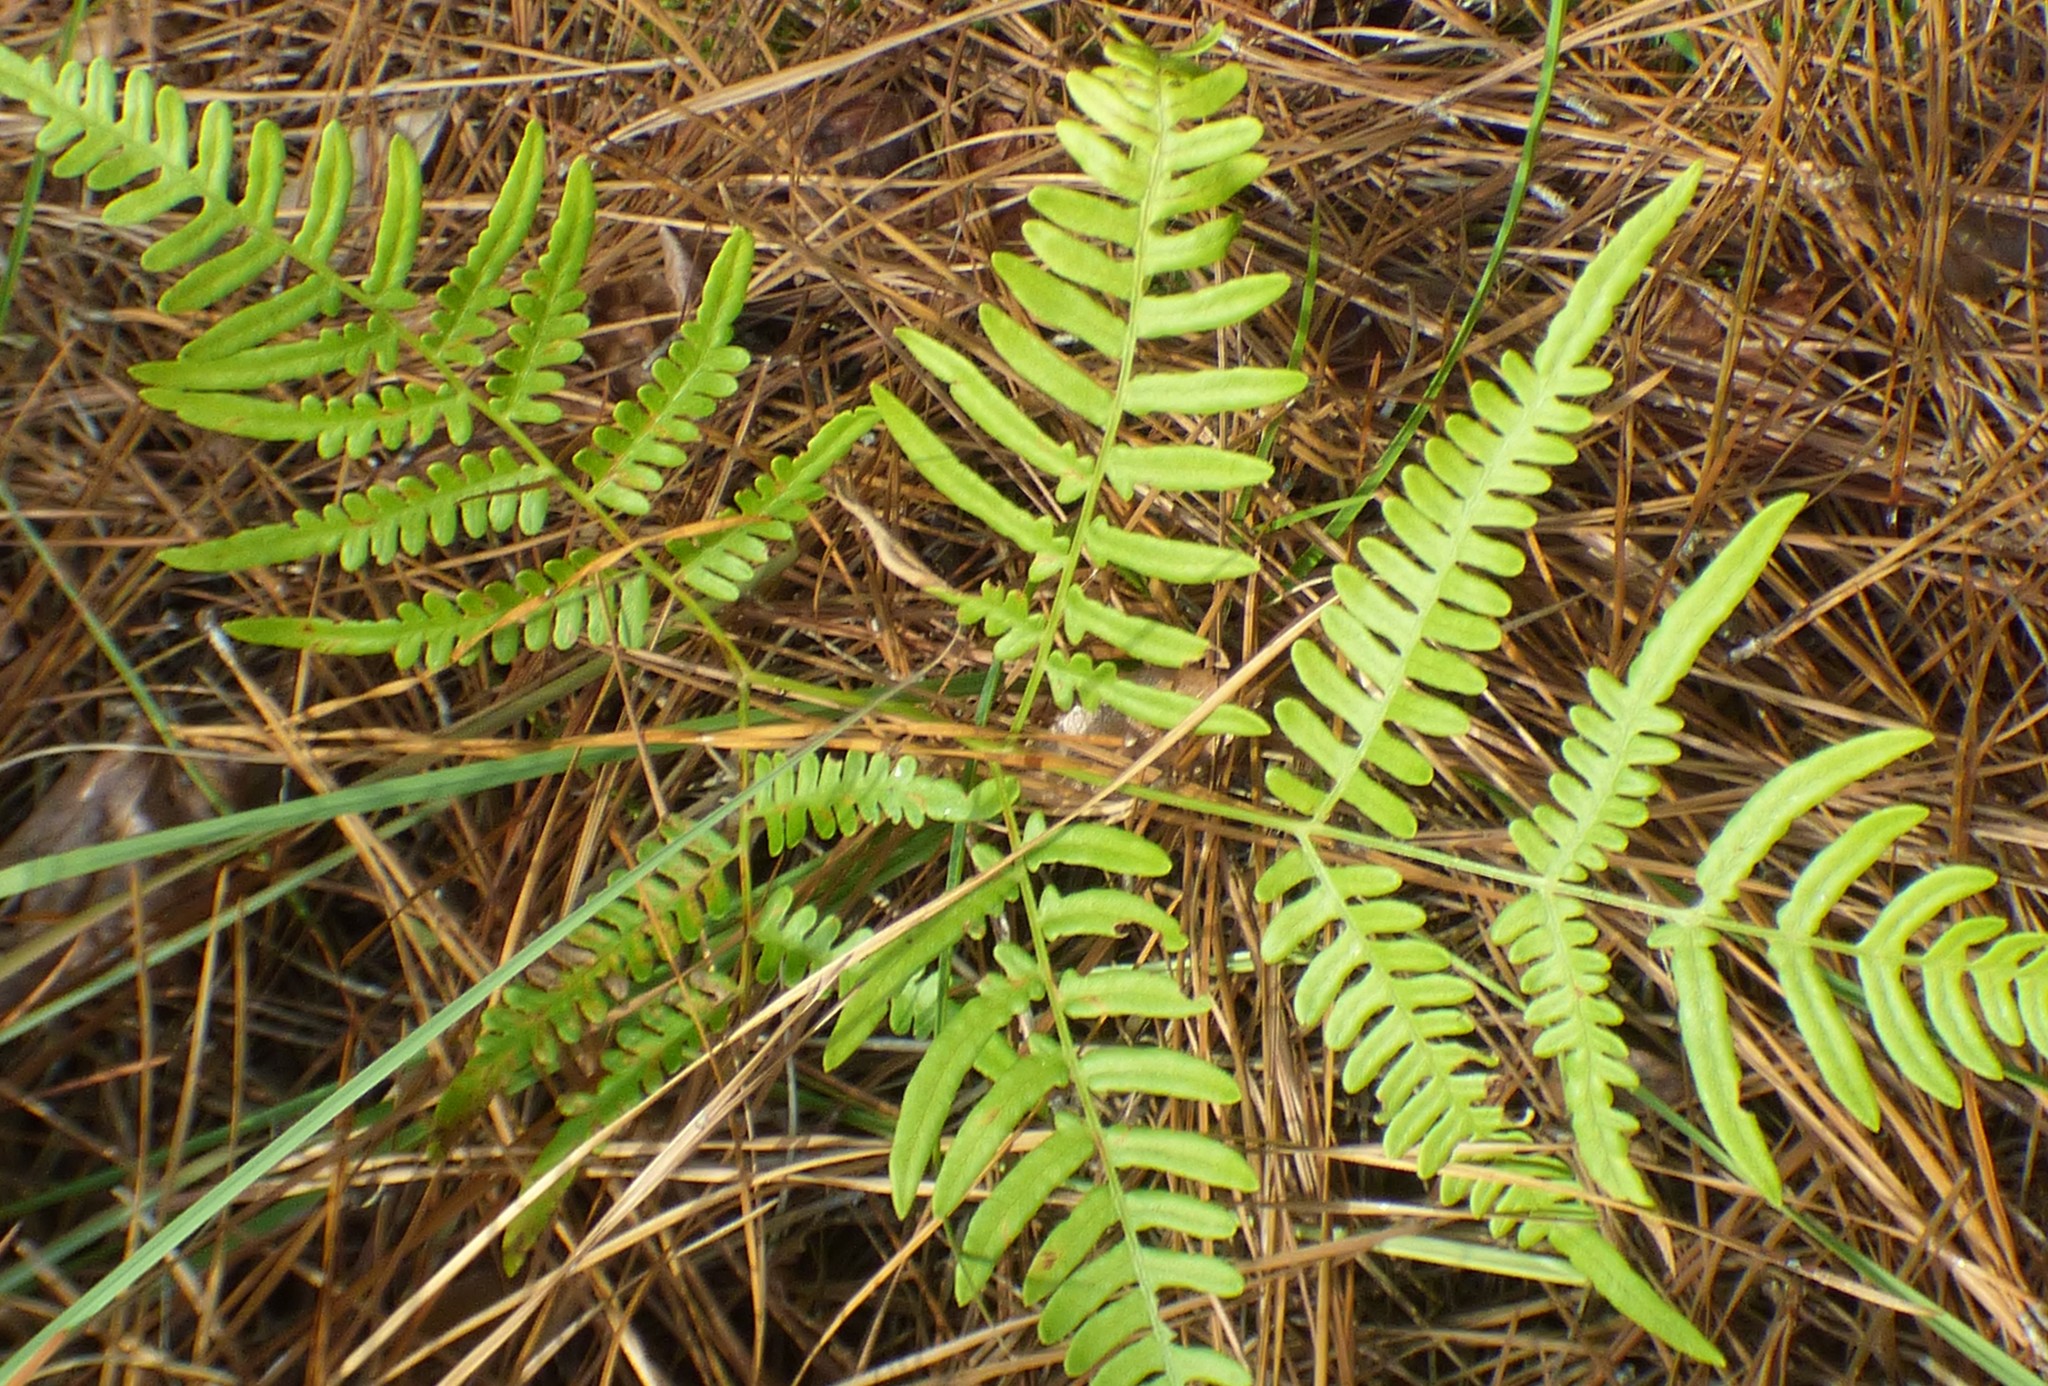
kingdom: Plantae
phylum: Tracheophyta
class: Polypodiopsida
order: Polypodiales
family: Dennstaedtiaceae
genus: Pteridium
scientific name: Pteridium
